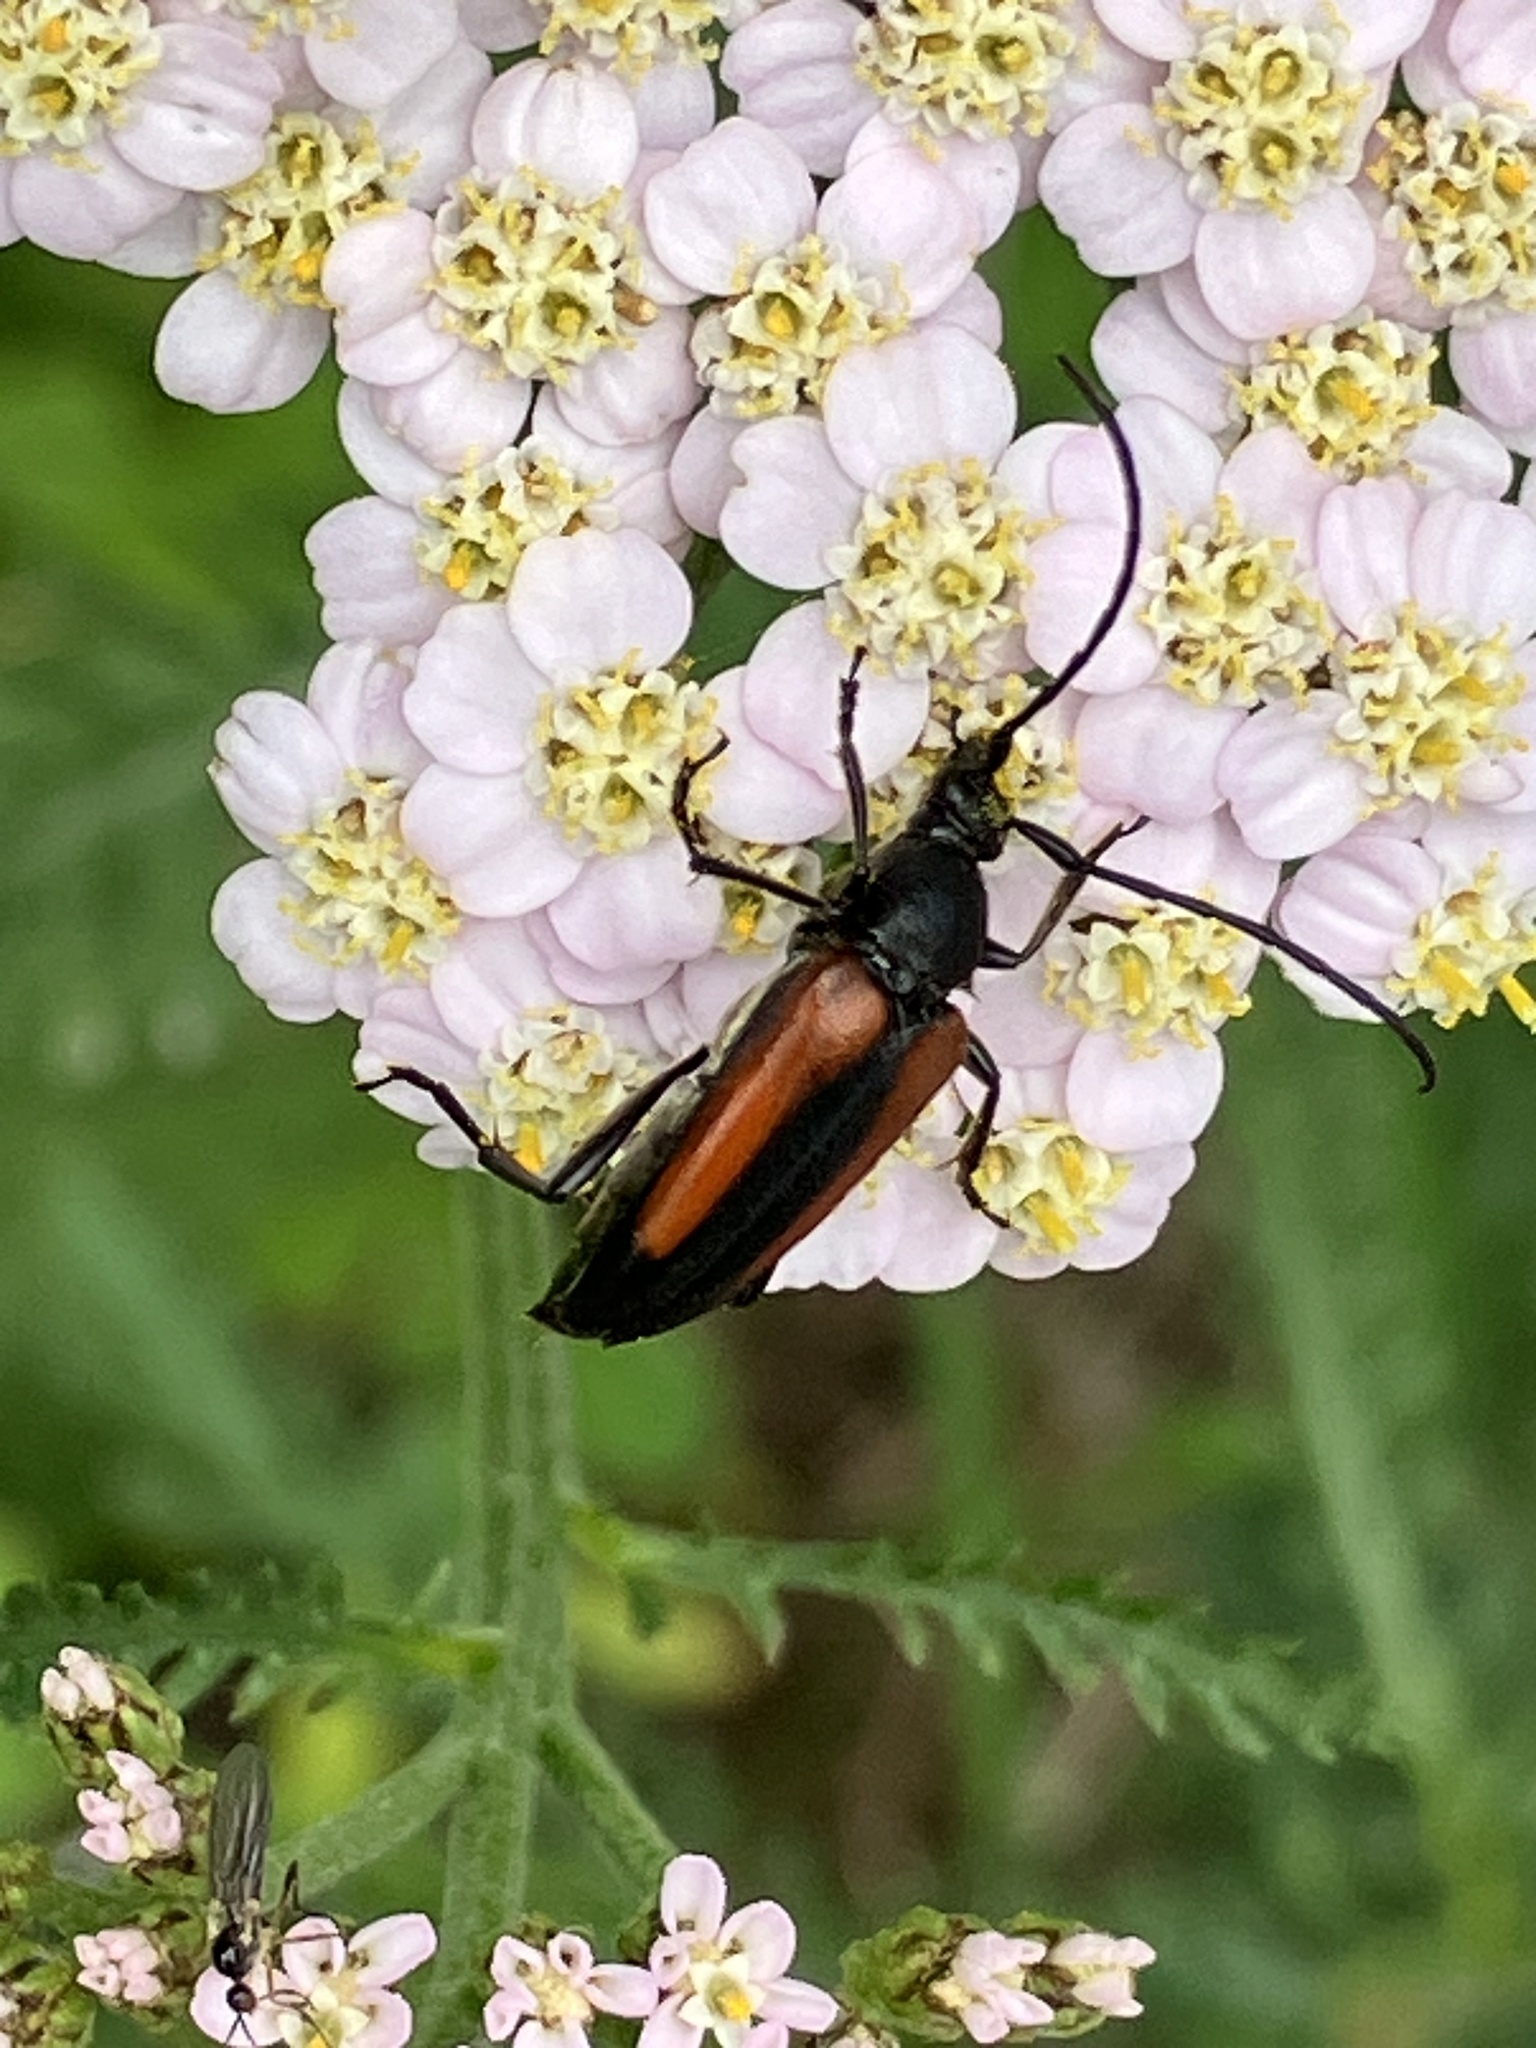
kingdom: Animalia
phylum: Arthropoda
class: Insecta
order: Coleoptera
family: Cerambycidae
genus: Stenurella
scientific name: Stenurella melanura
